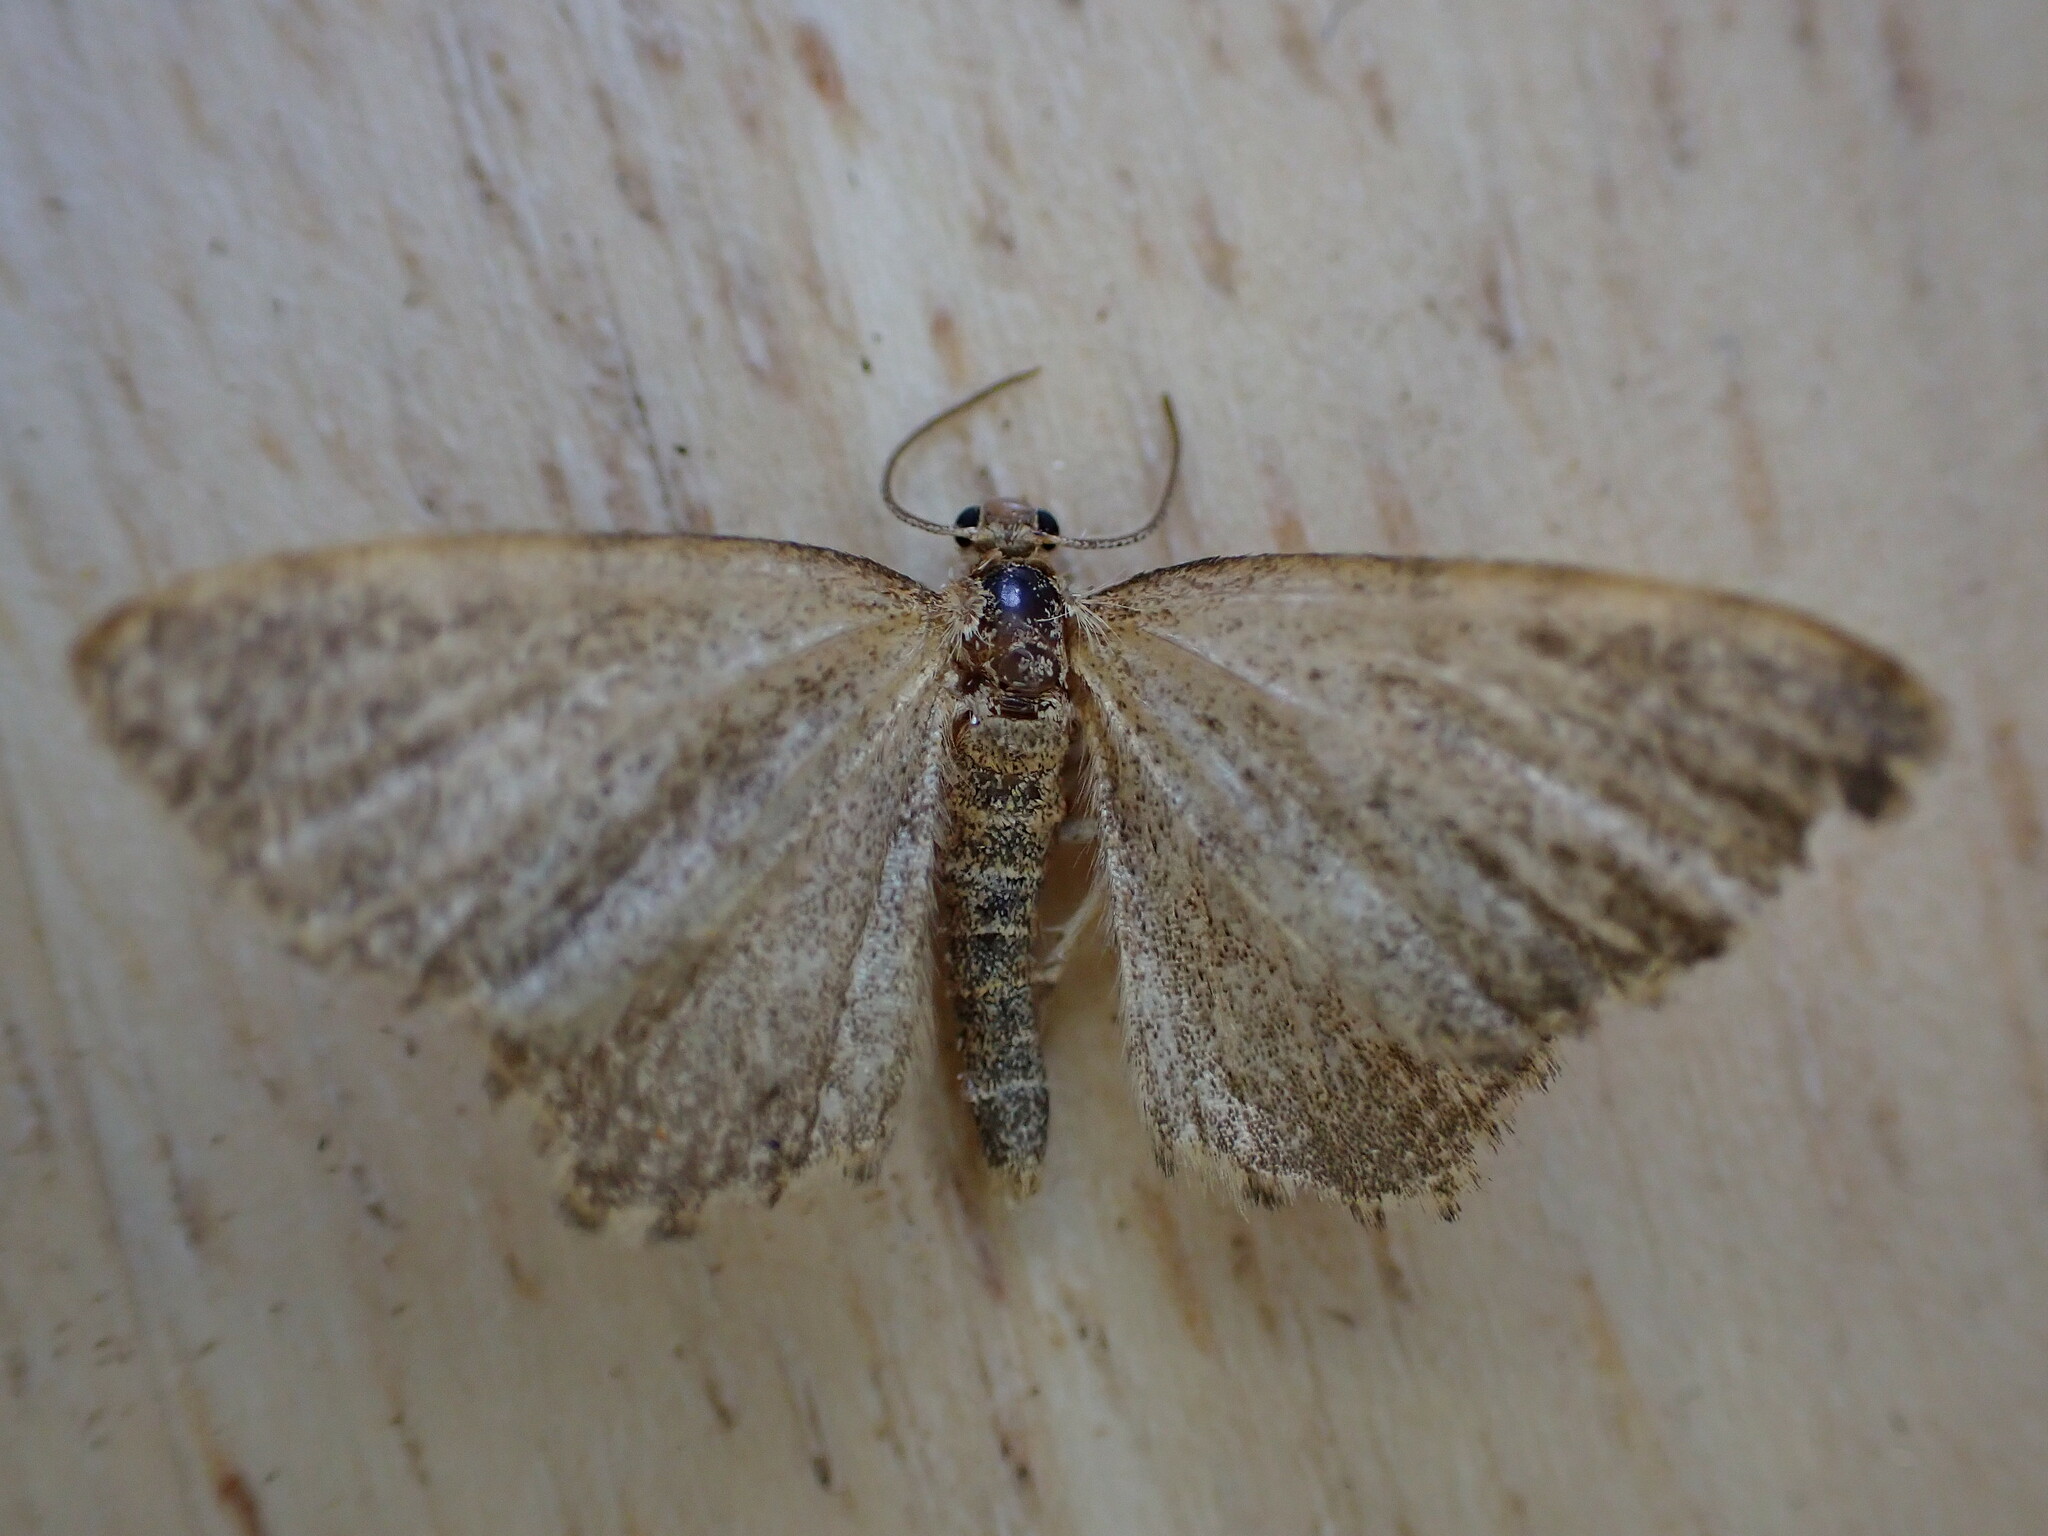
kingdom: Animalia
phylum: Arthropoda
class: Insecta
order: Lepidoptera
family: Geometridae
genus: Euchoeca
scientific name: Euchoeca nebulata
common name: Dingy shell
